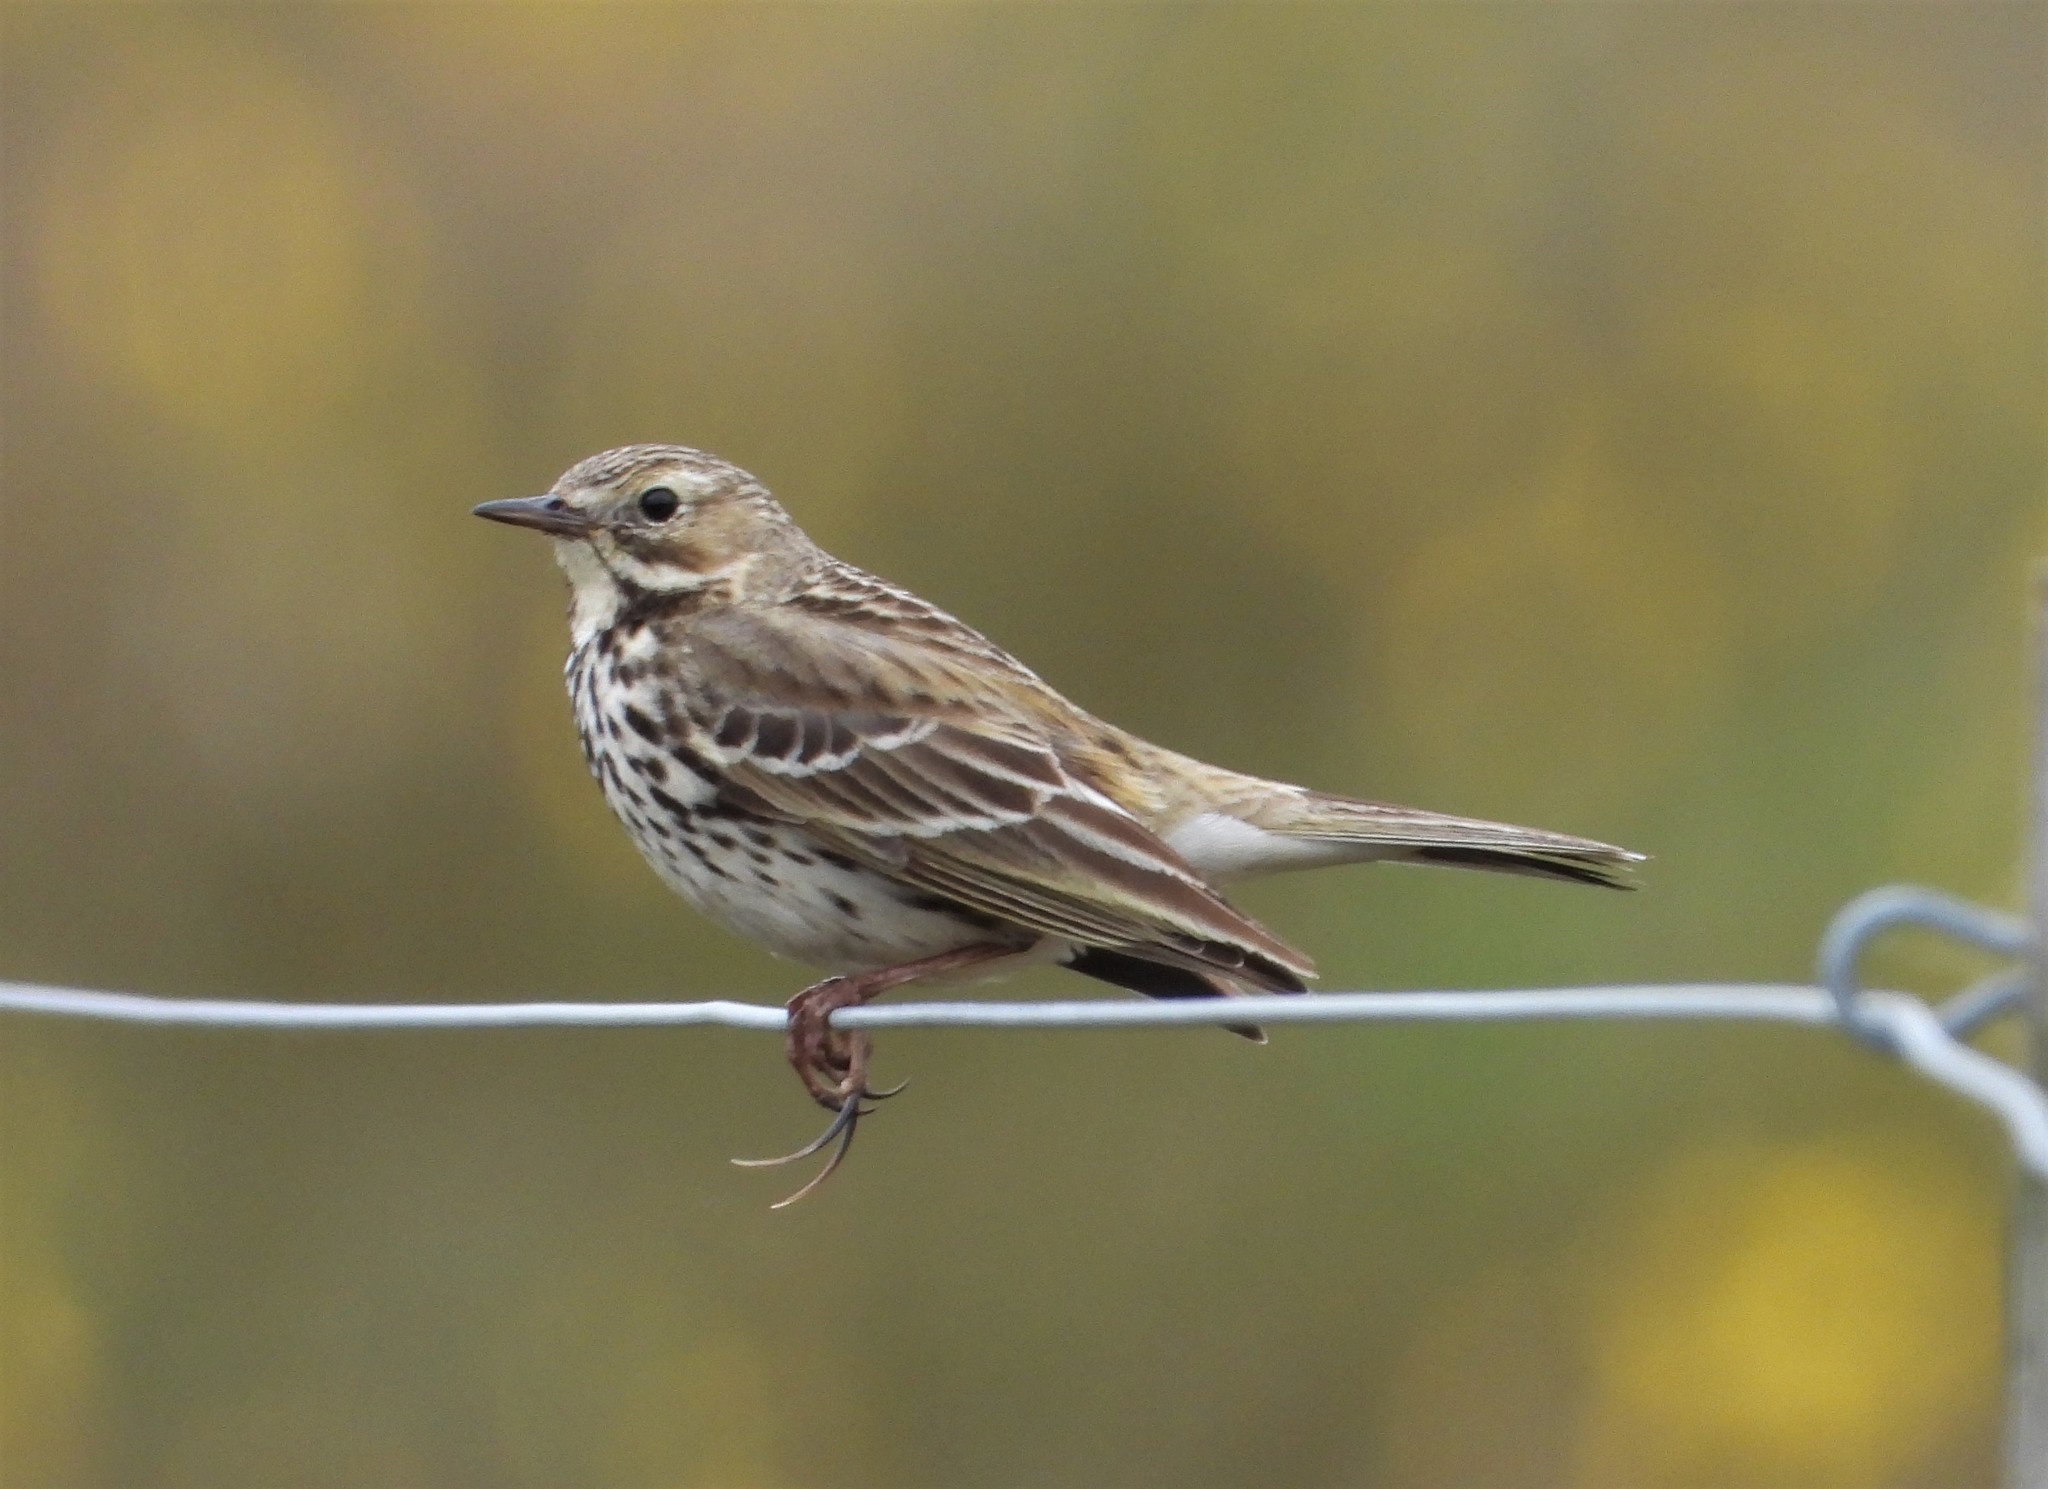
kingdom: Animalia
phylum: Chordata
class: Aves
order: Passeriformes
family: Motacillidae
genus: Anthus
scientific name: Anthus pratensis
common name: Meadow pipit
